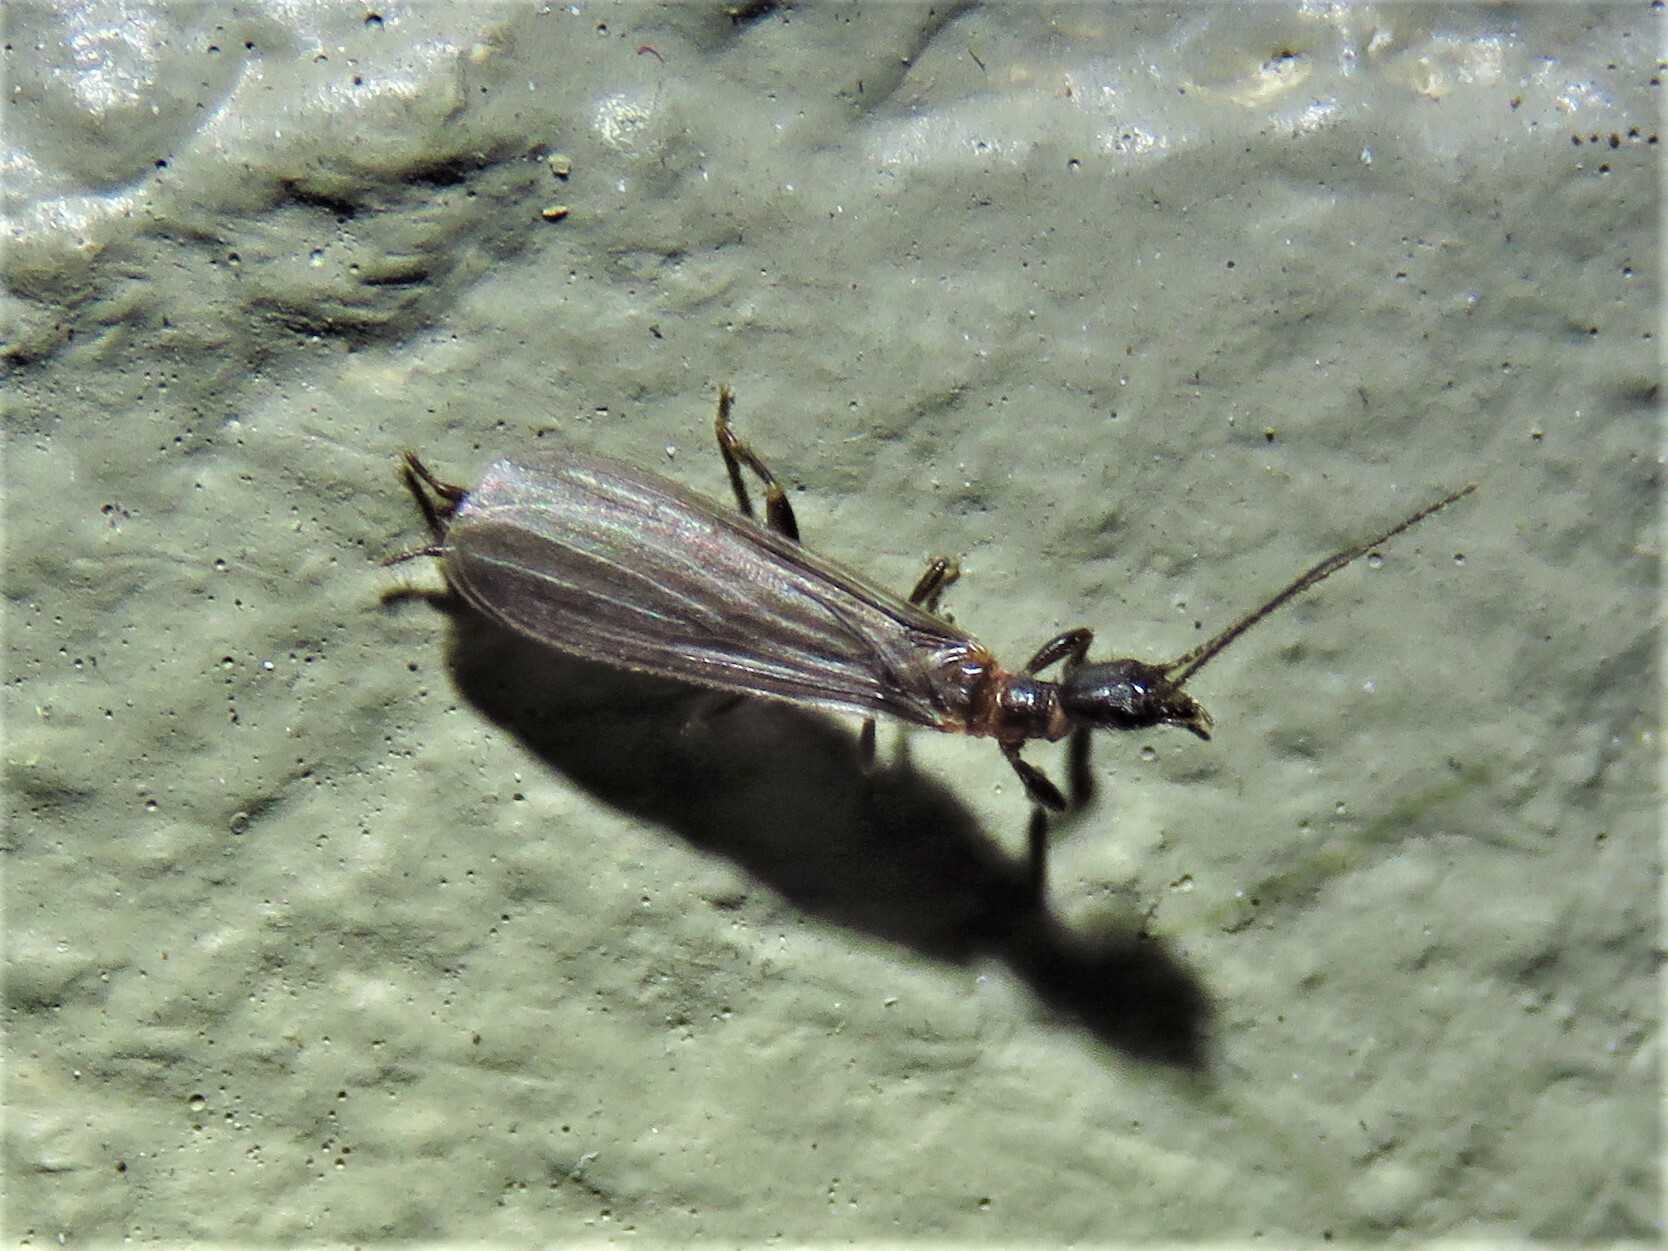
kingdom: Animalia
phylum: Arthropoda
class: Insecta
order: Embioptera
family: Oligotomidae
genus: Oligotoma
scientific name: Oligotoma nigra
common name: Black webspinner
